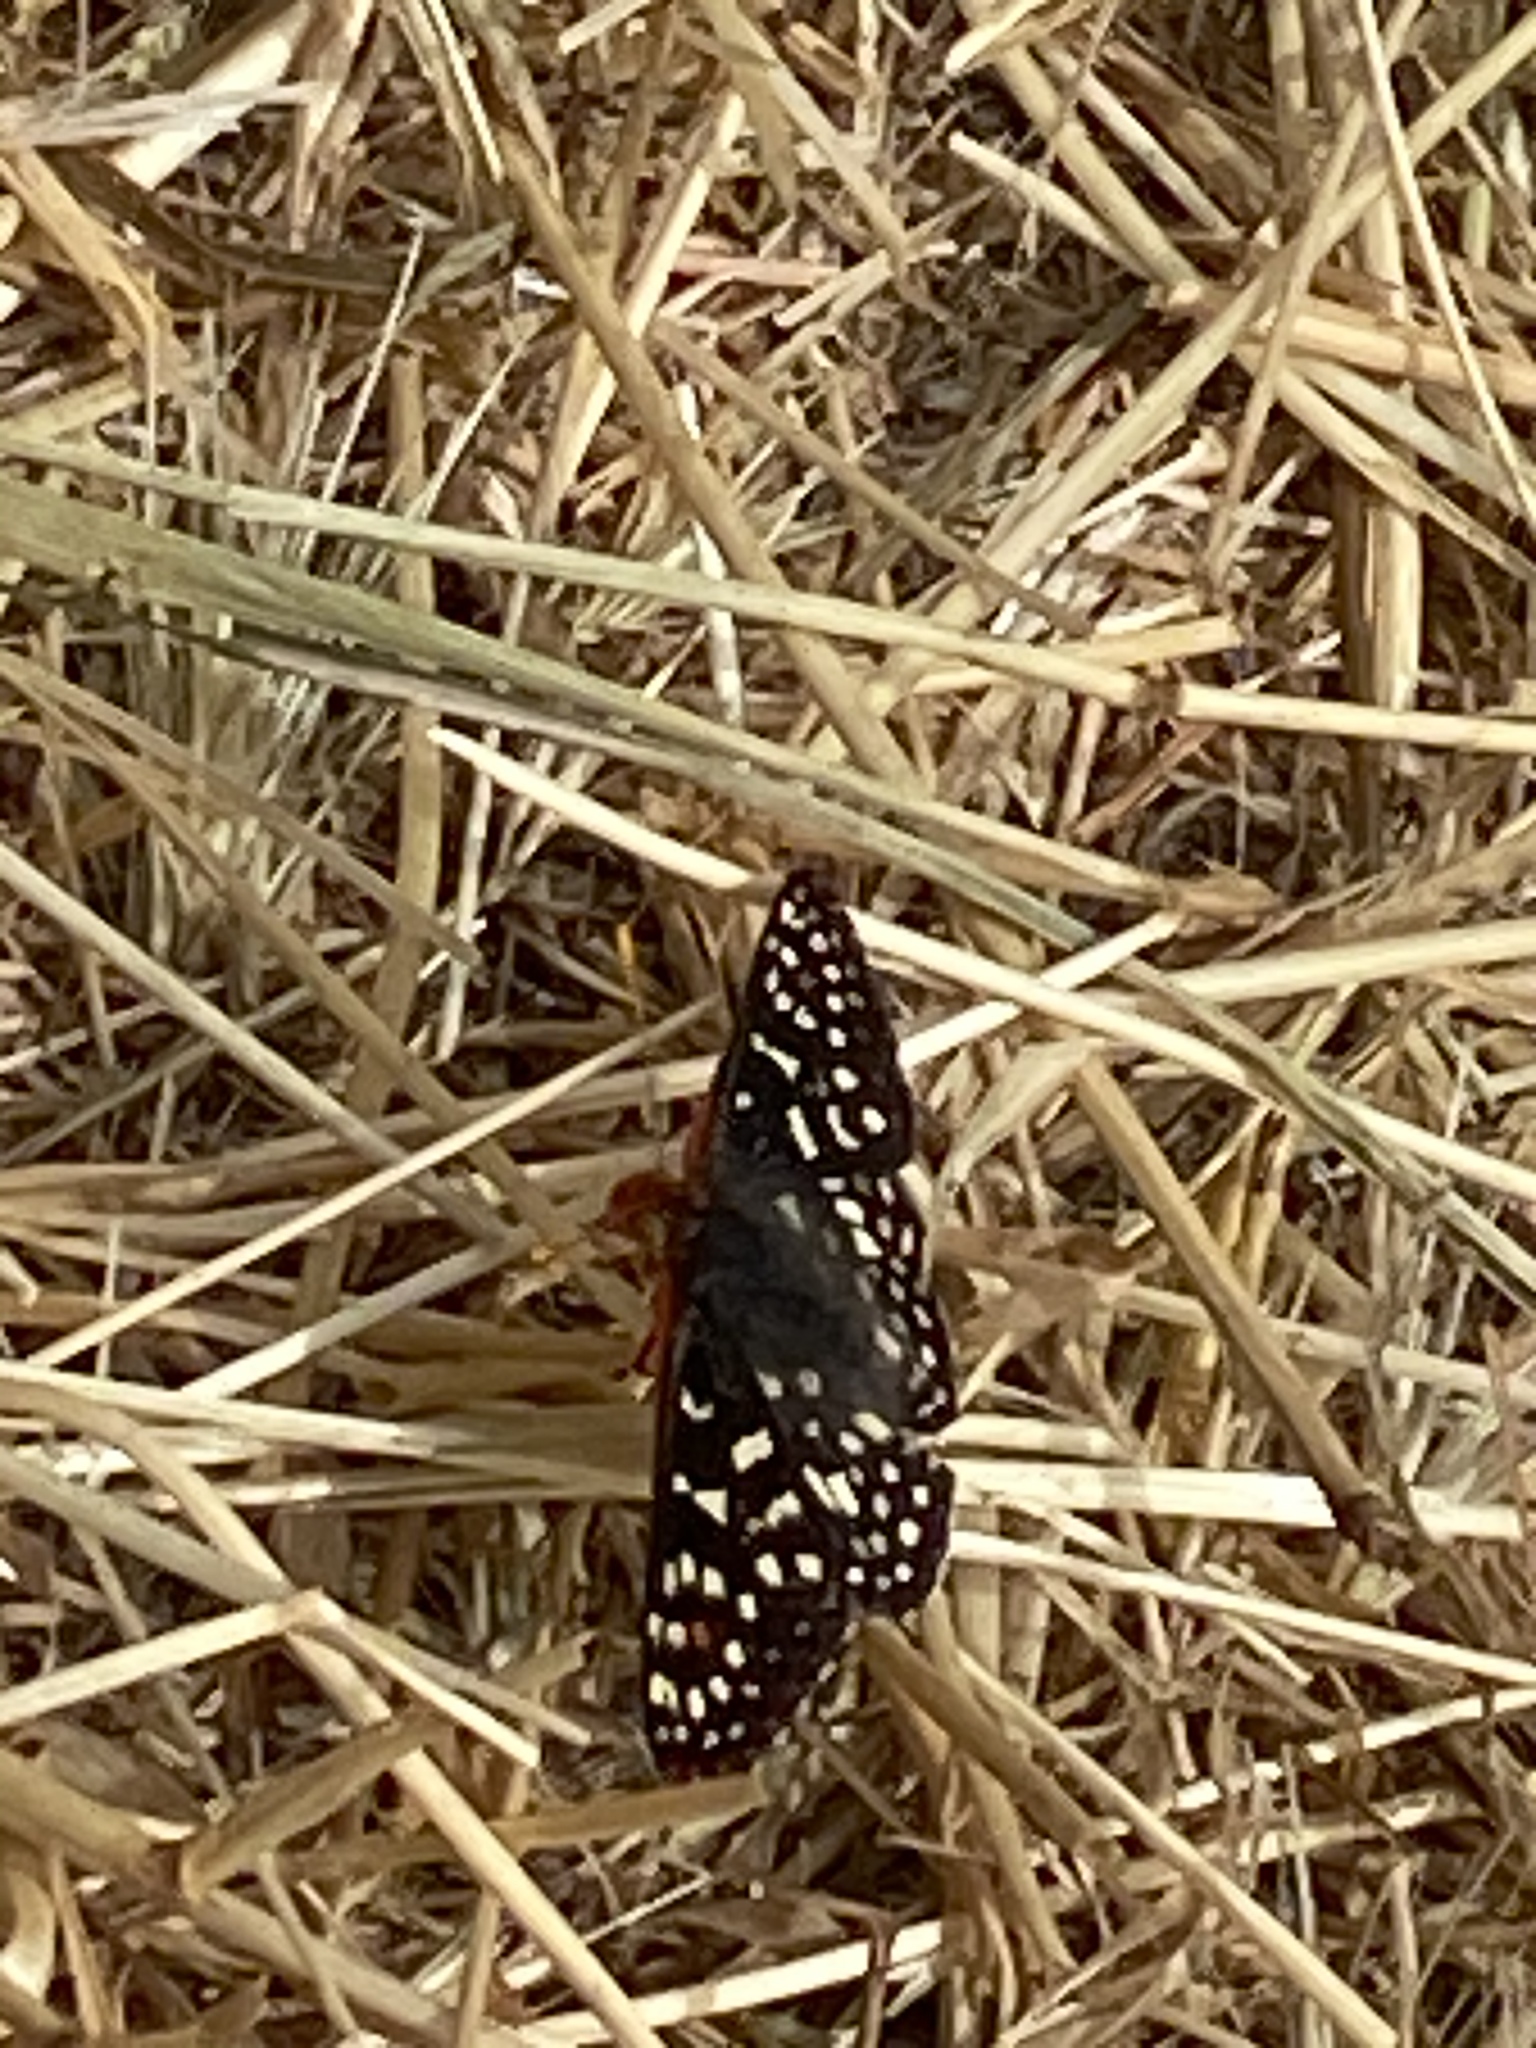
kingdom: Animalia
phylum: Arthropoda
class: Insecta
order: Lepidoptera
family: Nymphalidae
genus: Occidryas
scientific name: Occidryas chalcedona
